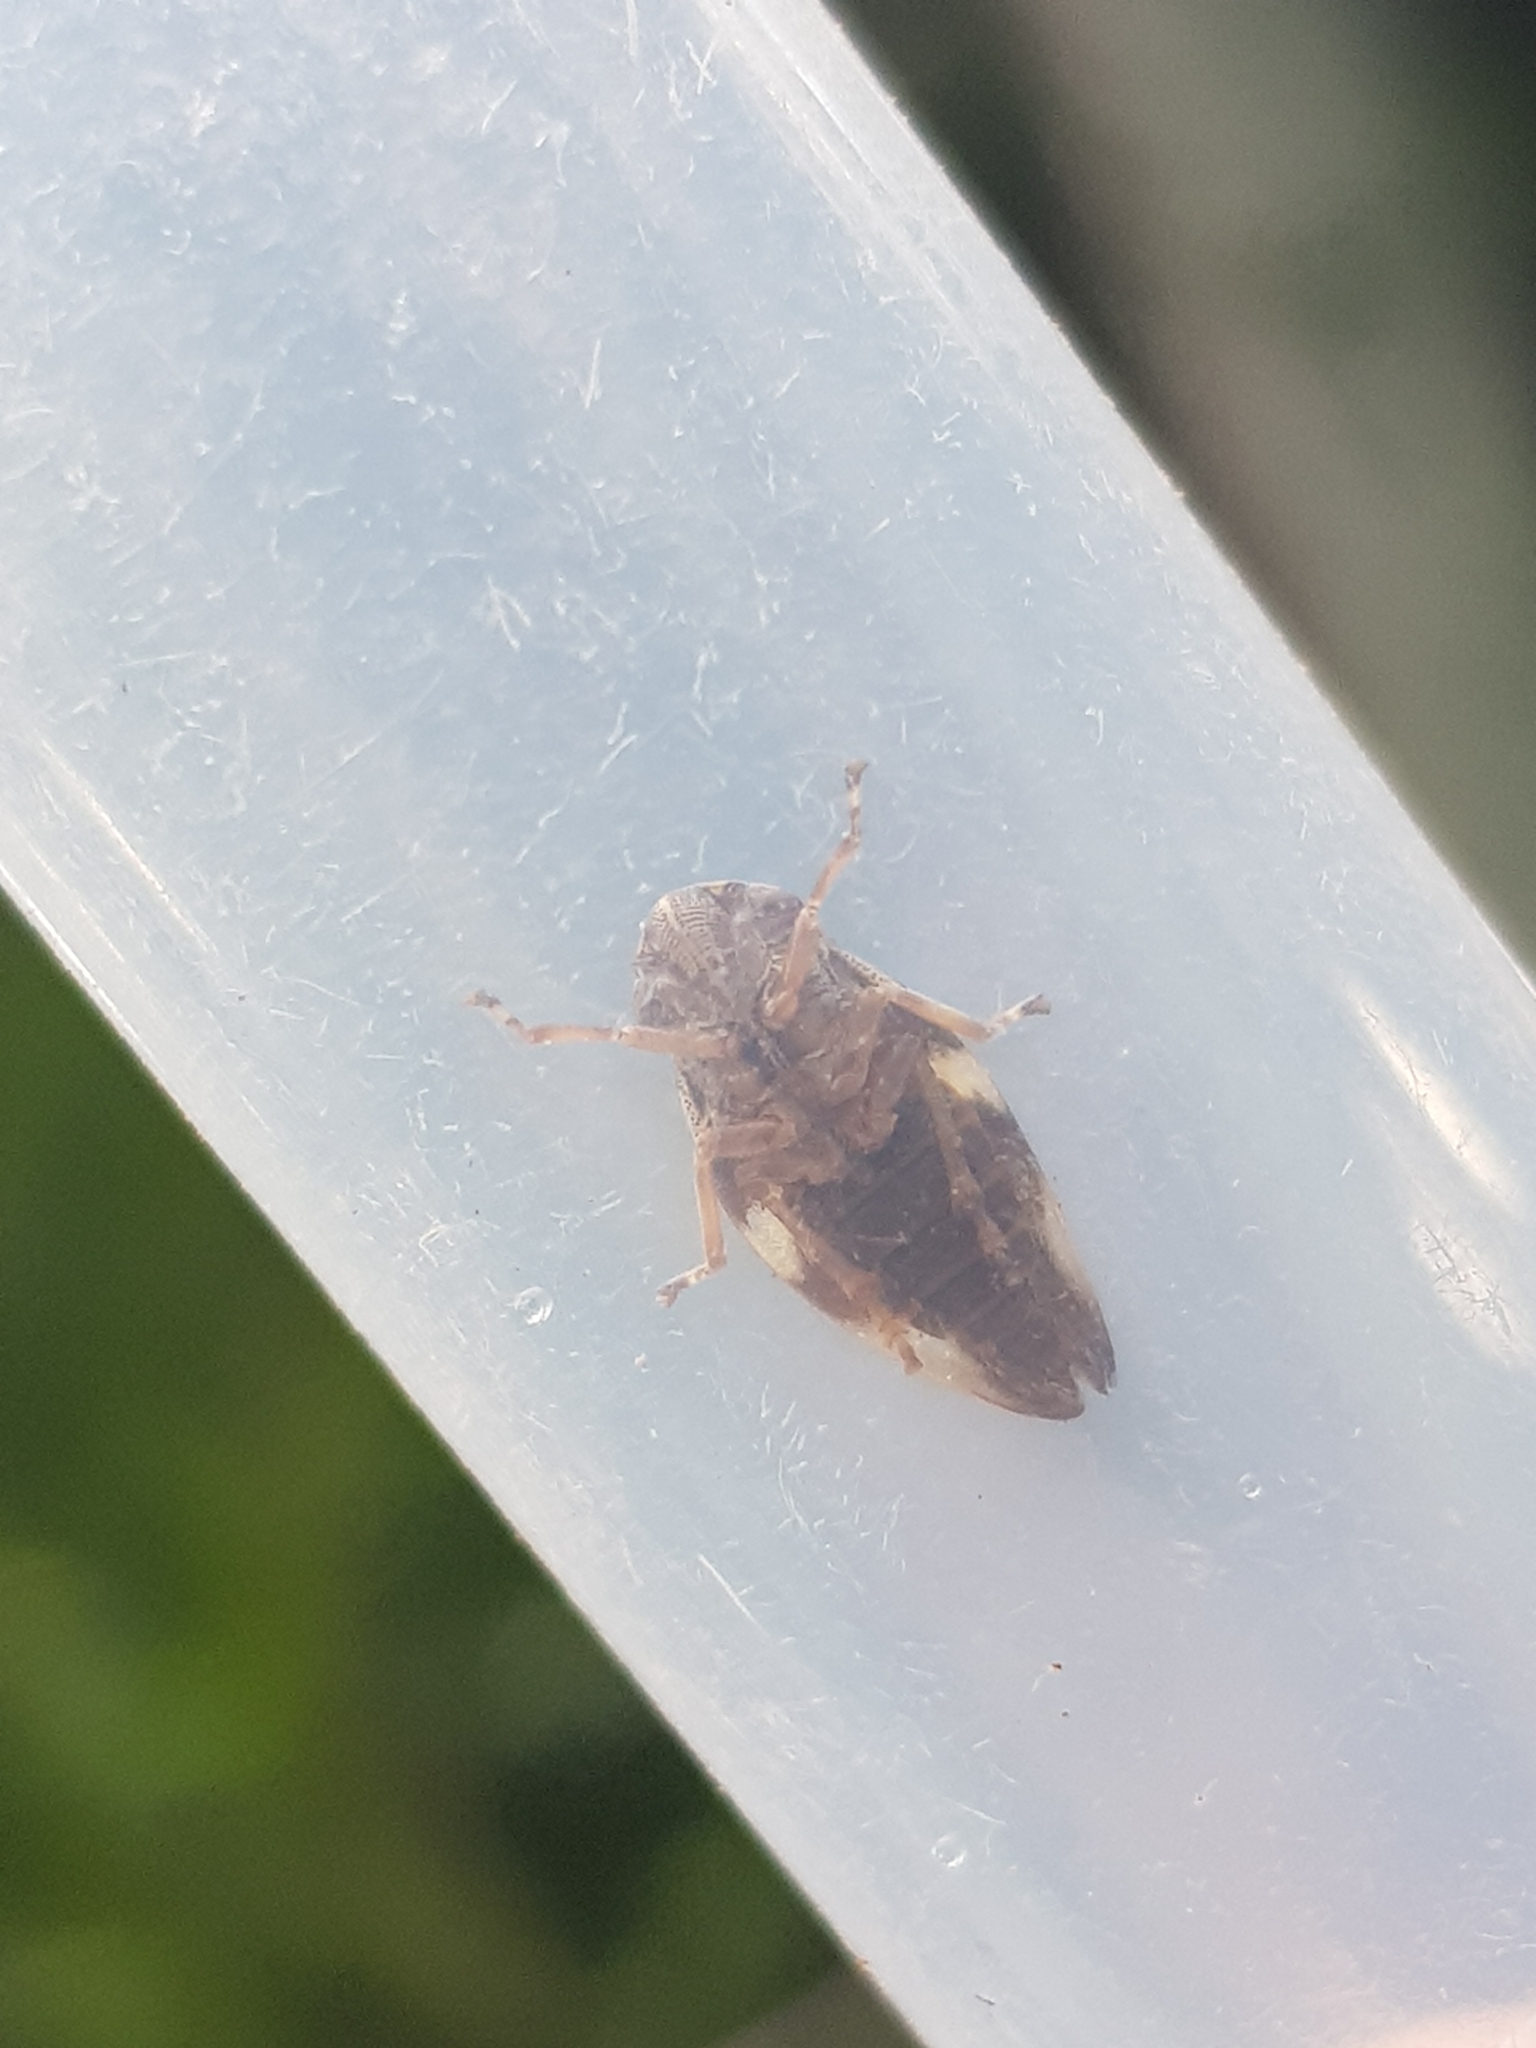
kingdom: Animalia
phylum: Arthropoda
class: Insecta
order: Hemiptera
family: Aphrophoridae
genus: Aphrophora
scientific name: Aphrophora alni
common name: European alder spittlebug
